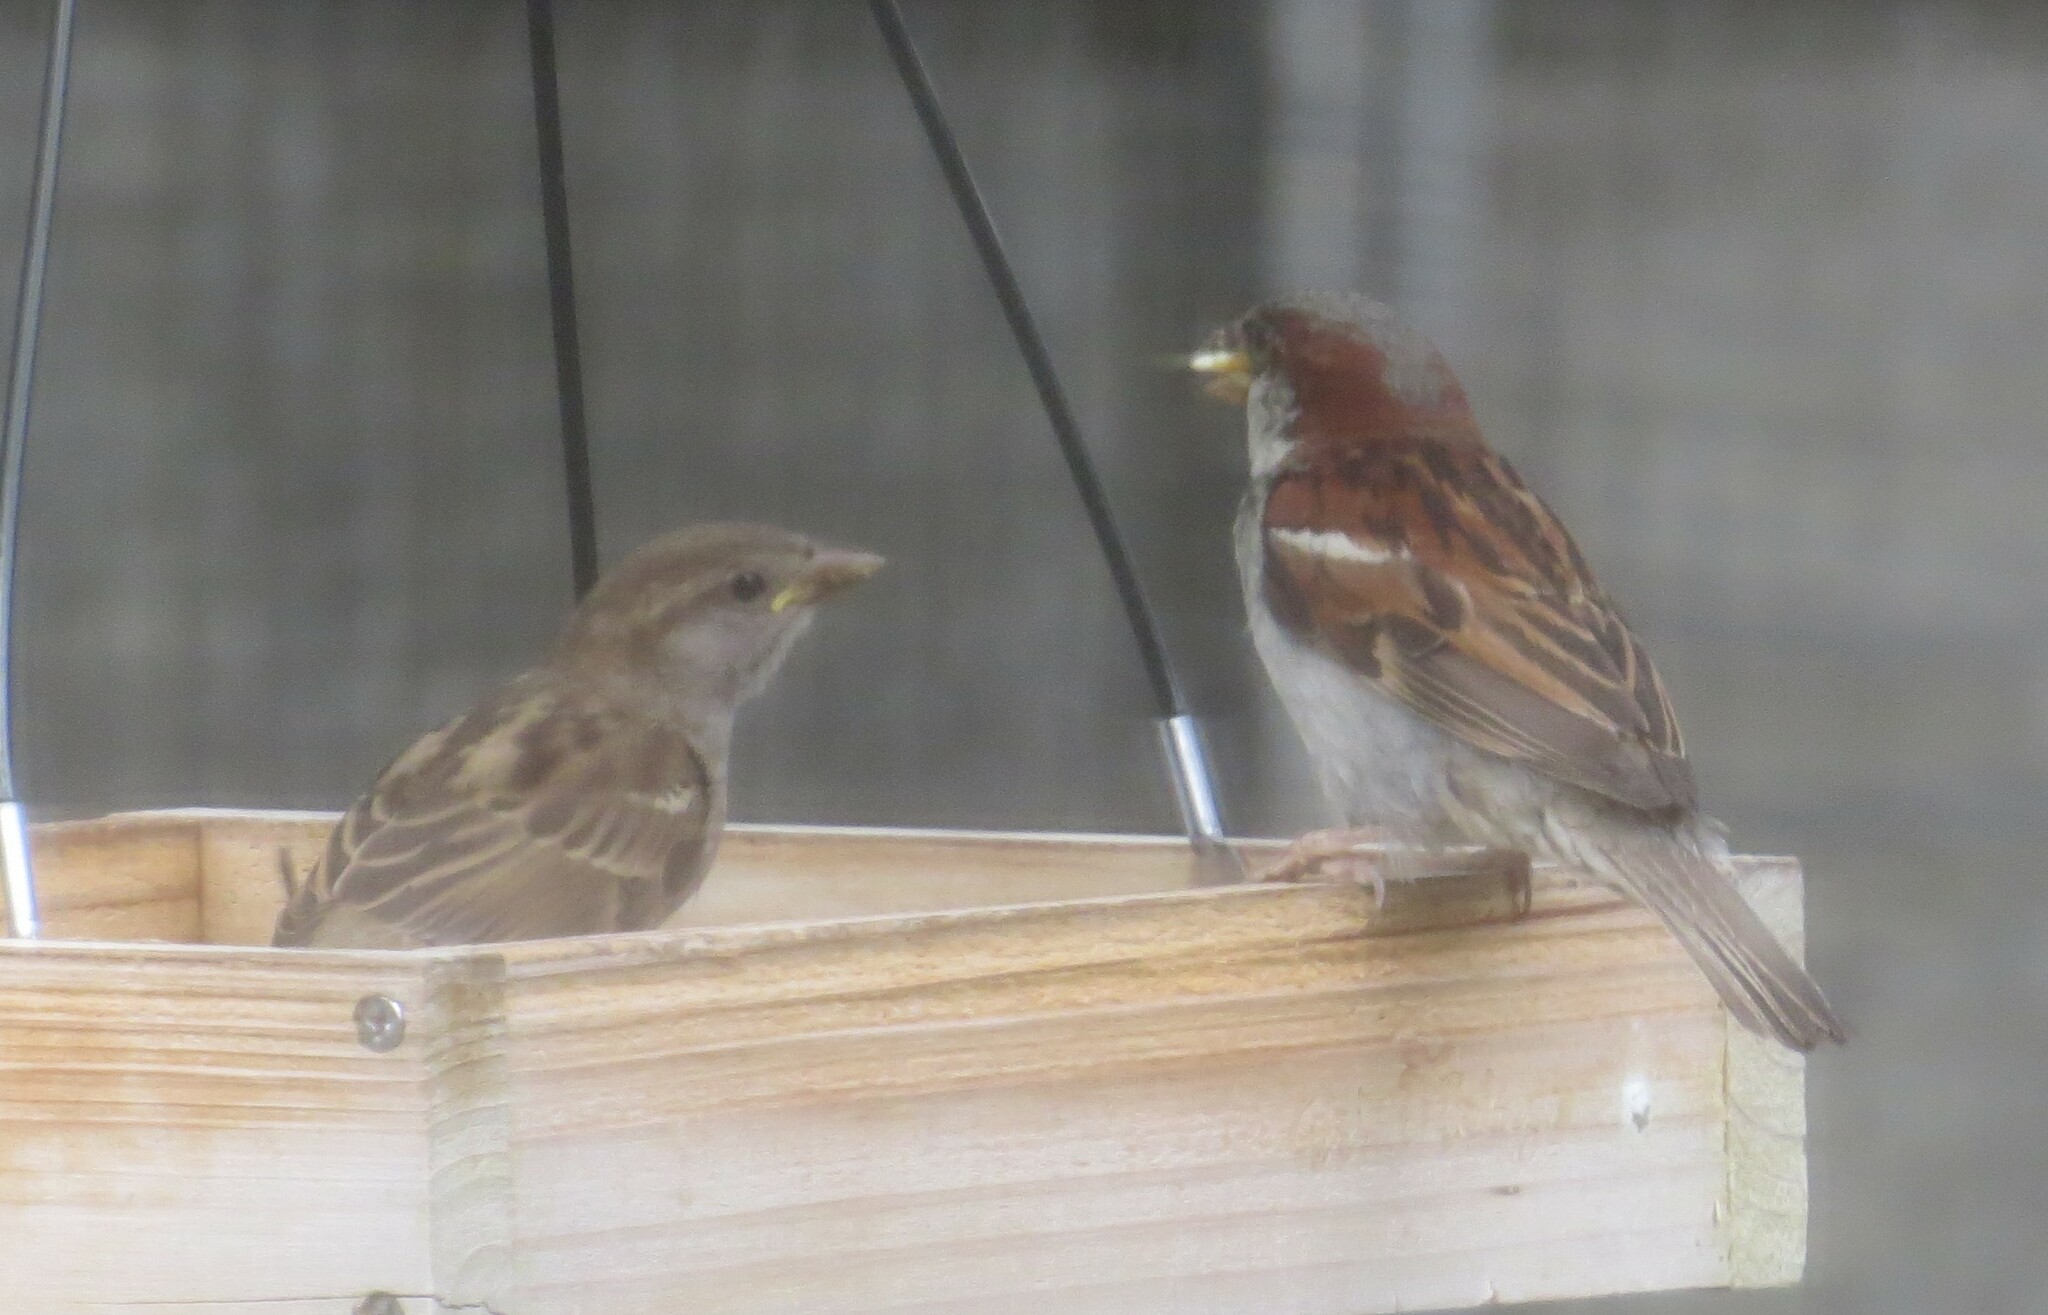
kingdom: Animalia
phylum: Chordata
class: Aves
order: Passeriformes
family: Passeridae
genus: Passer
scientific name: Passer domesticus
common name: House sparrow
